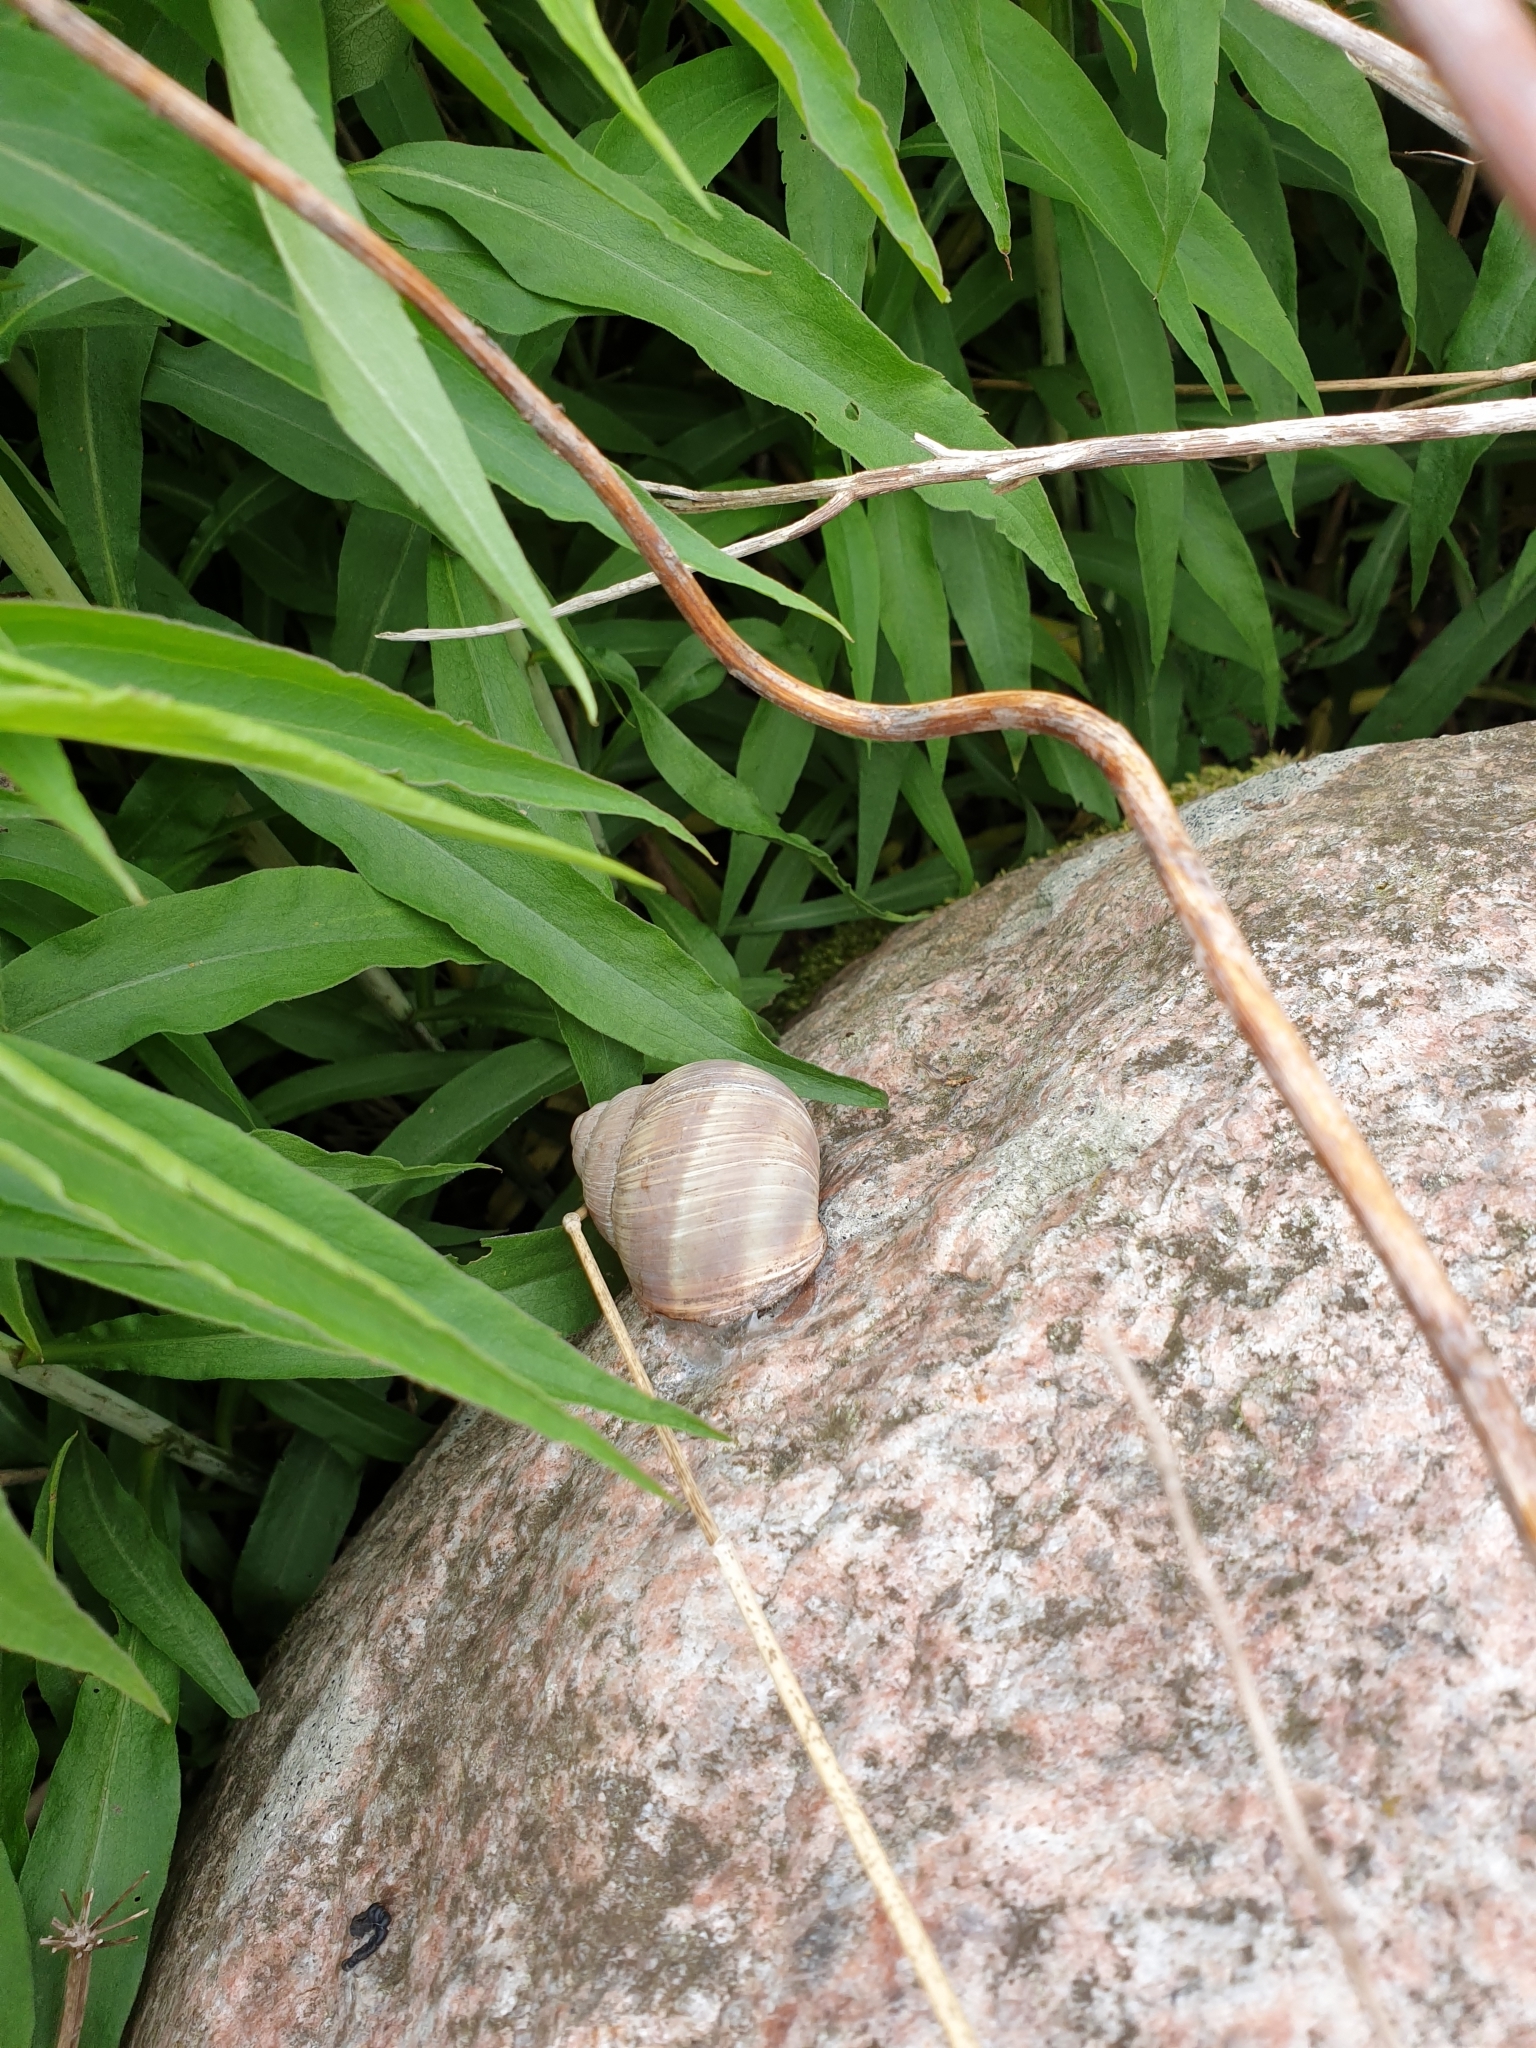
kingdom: Animalia
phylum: Mollusca
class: Gastropoda
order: Stylommatophora
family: Helicidae
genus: Helix
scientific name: Helix pomatia
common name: Roman snail
